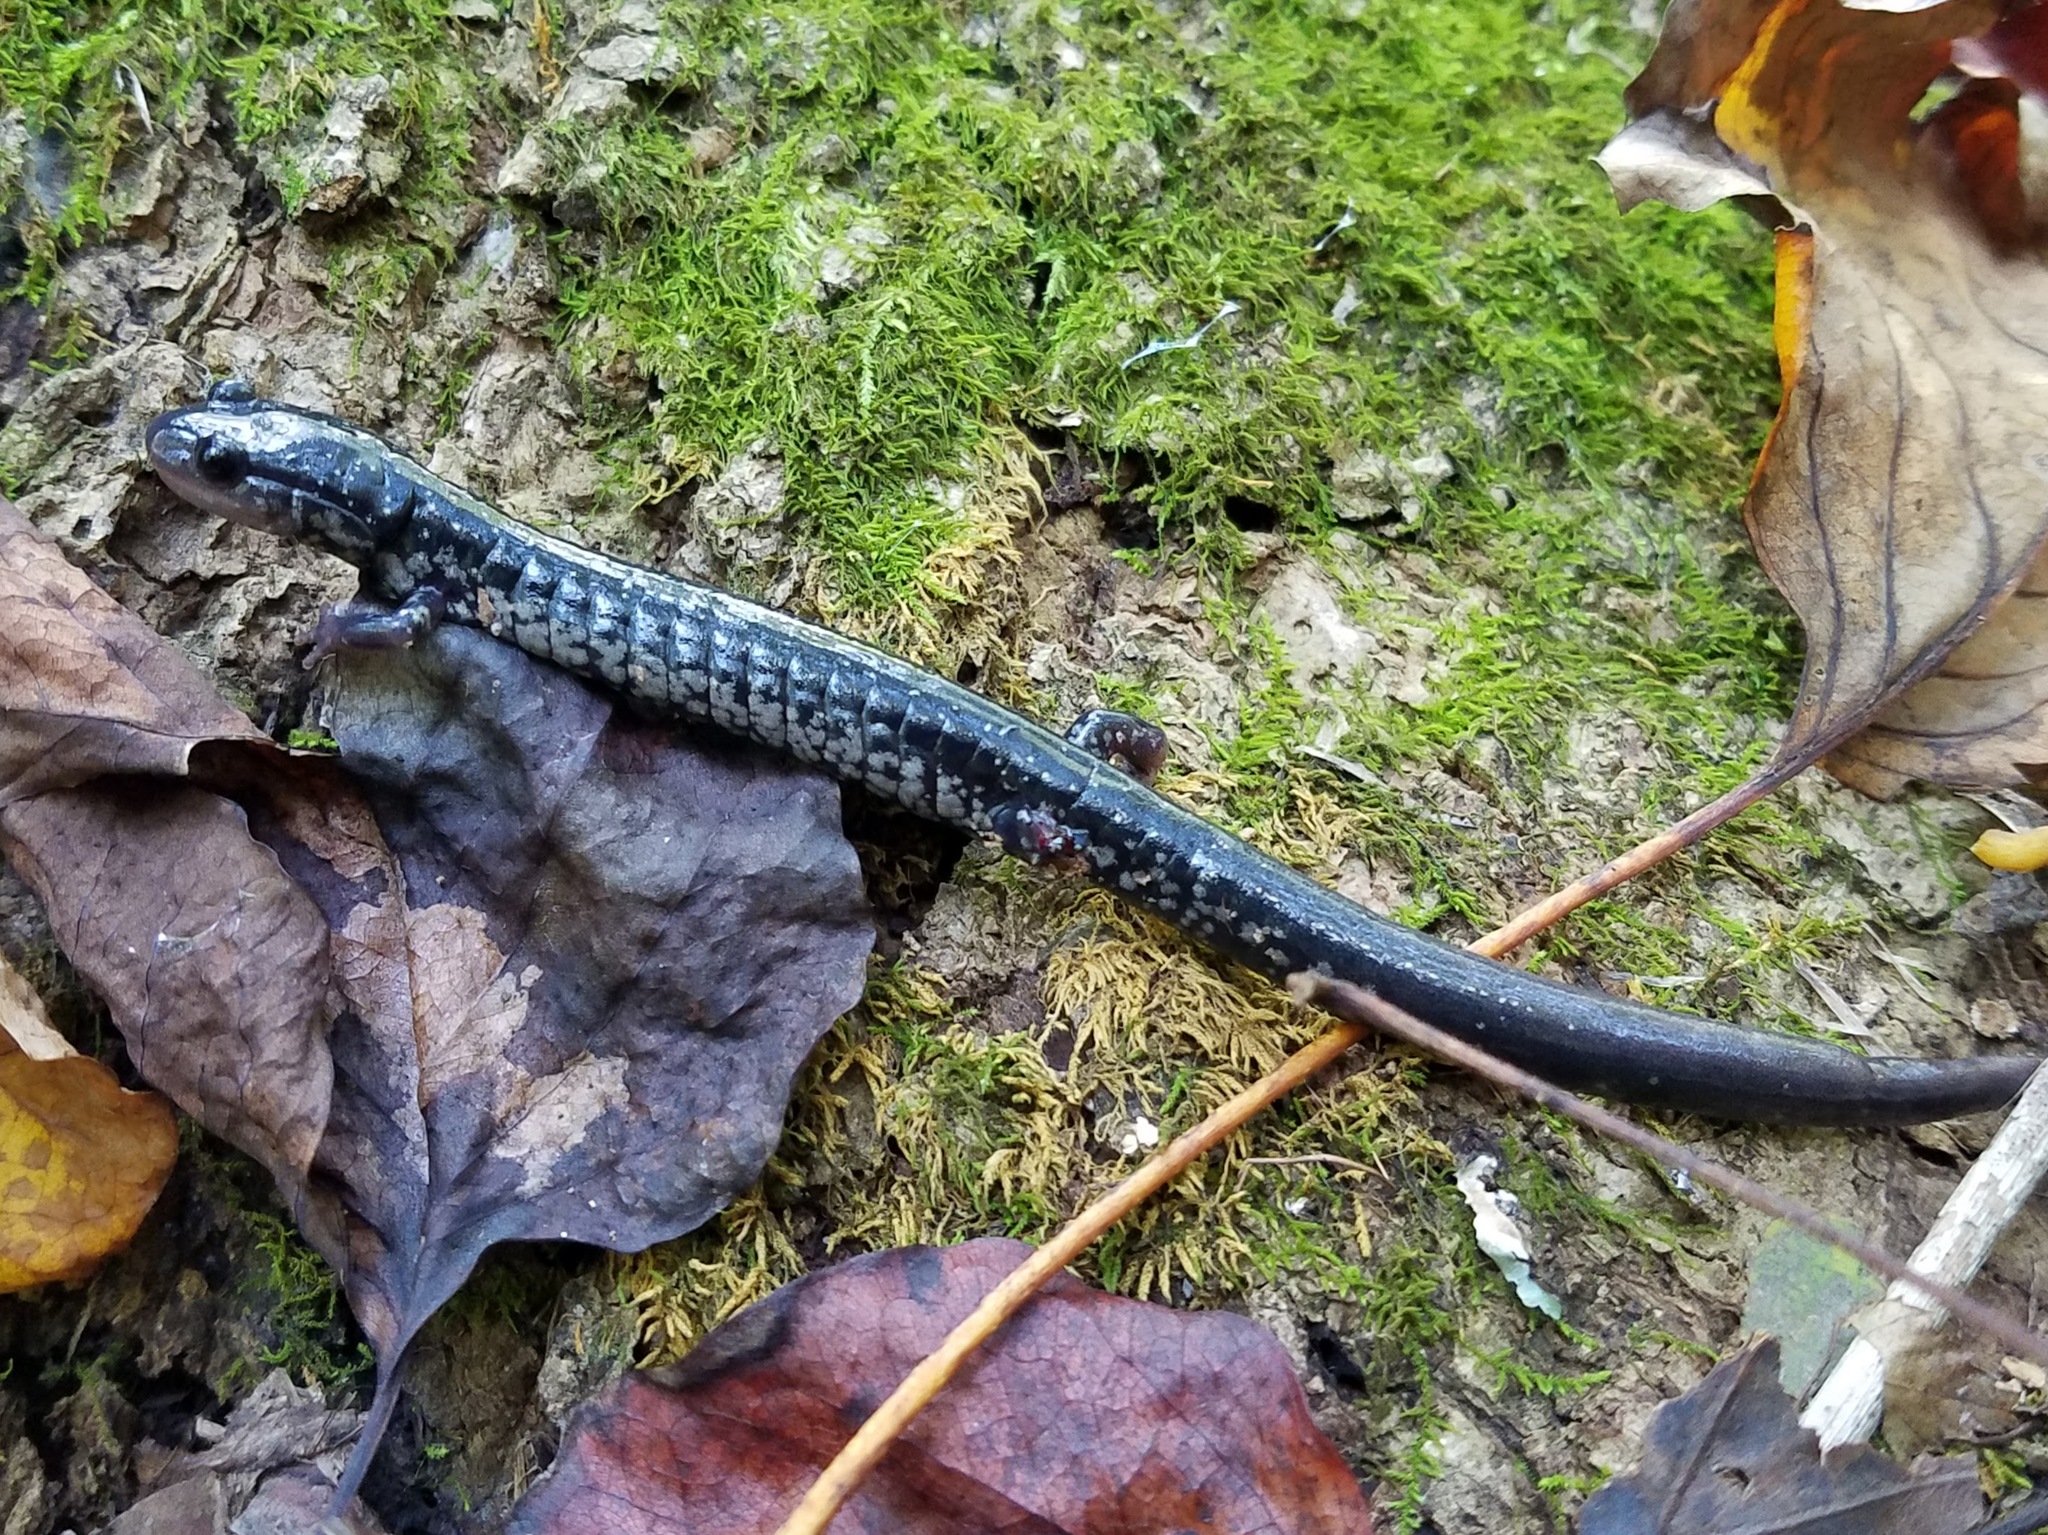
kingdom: Animalia
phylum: Chordata
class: Amphibia
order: Caudata
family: Plethodontidae
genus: Plethodon
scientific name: Plethodon glutinosus
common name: Northern slimy salamander
